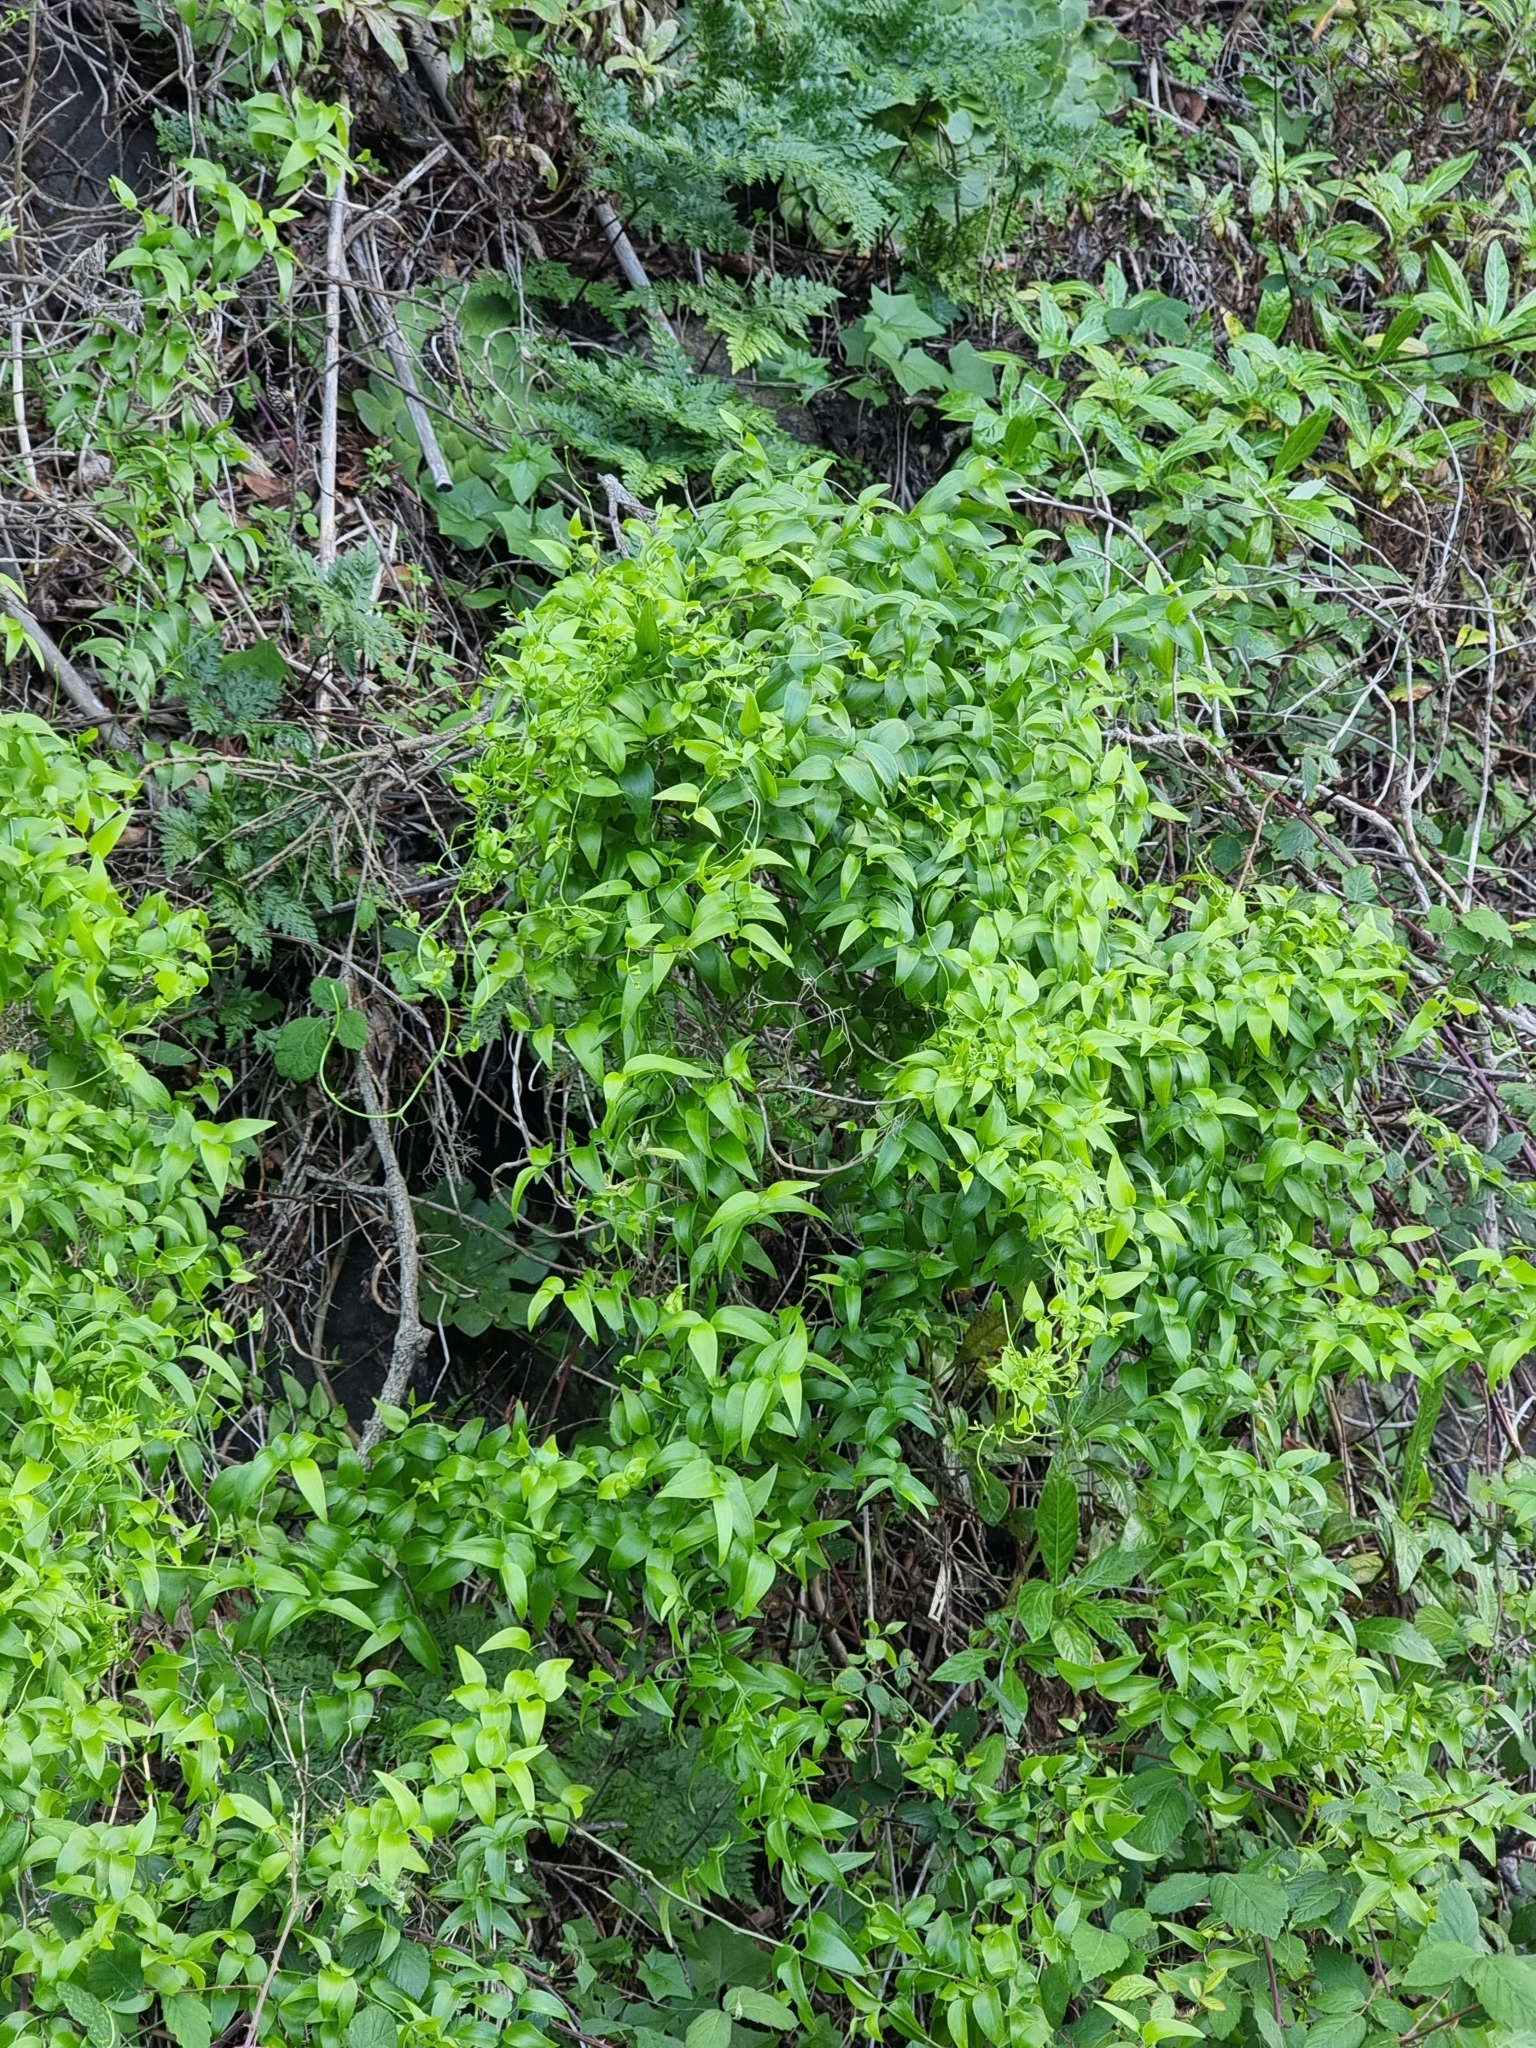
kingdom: Plantae
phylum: Tracheophyta
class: Liliopsida
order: Asparagales
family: Asparagaceae
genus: Asparagus
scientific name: Asparagus asparagoides
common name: African asparagus fern
